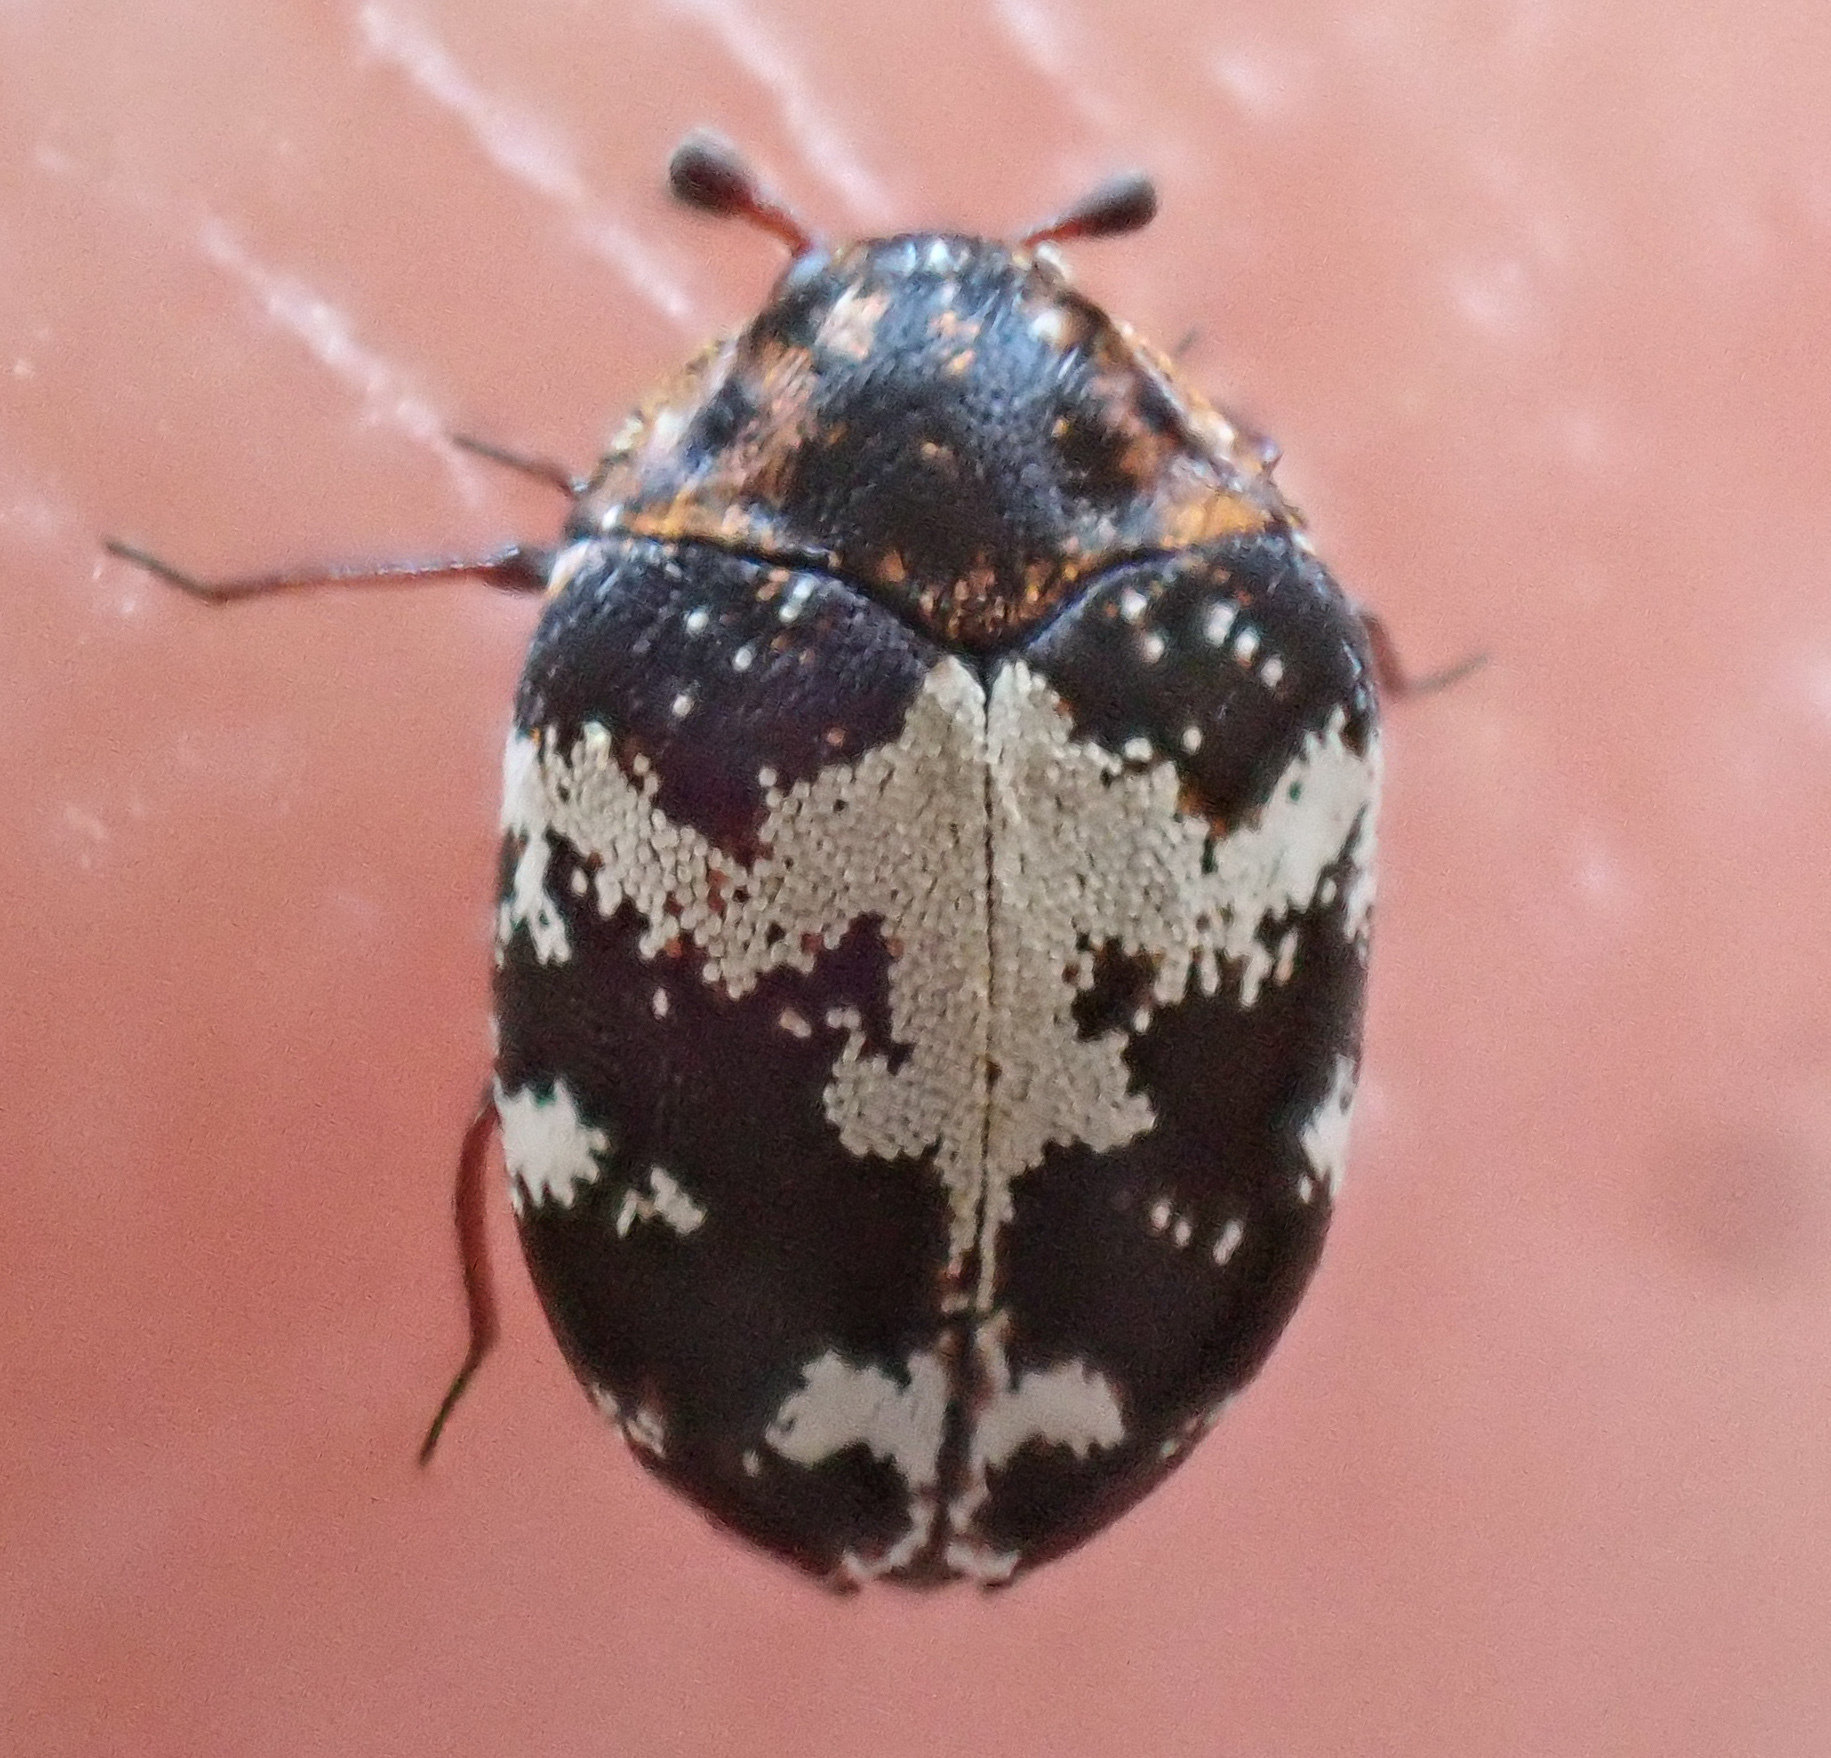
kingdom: Animalia
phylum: Arthropoda
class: Insecta
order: Coleoptera
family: Dermestidae
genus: Anthrenus
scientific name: Anthrenus sophonisba
